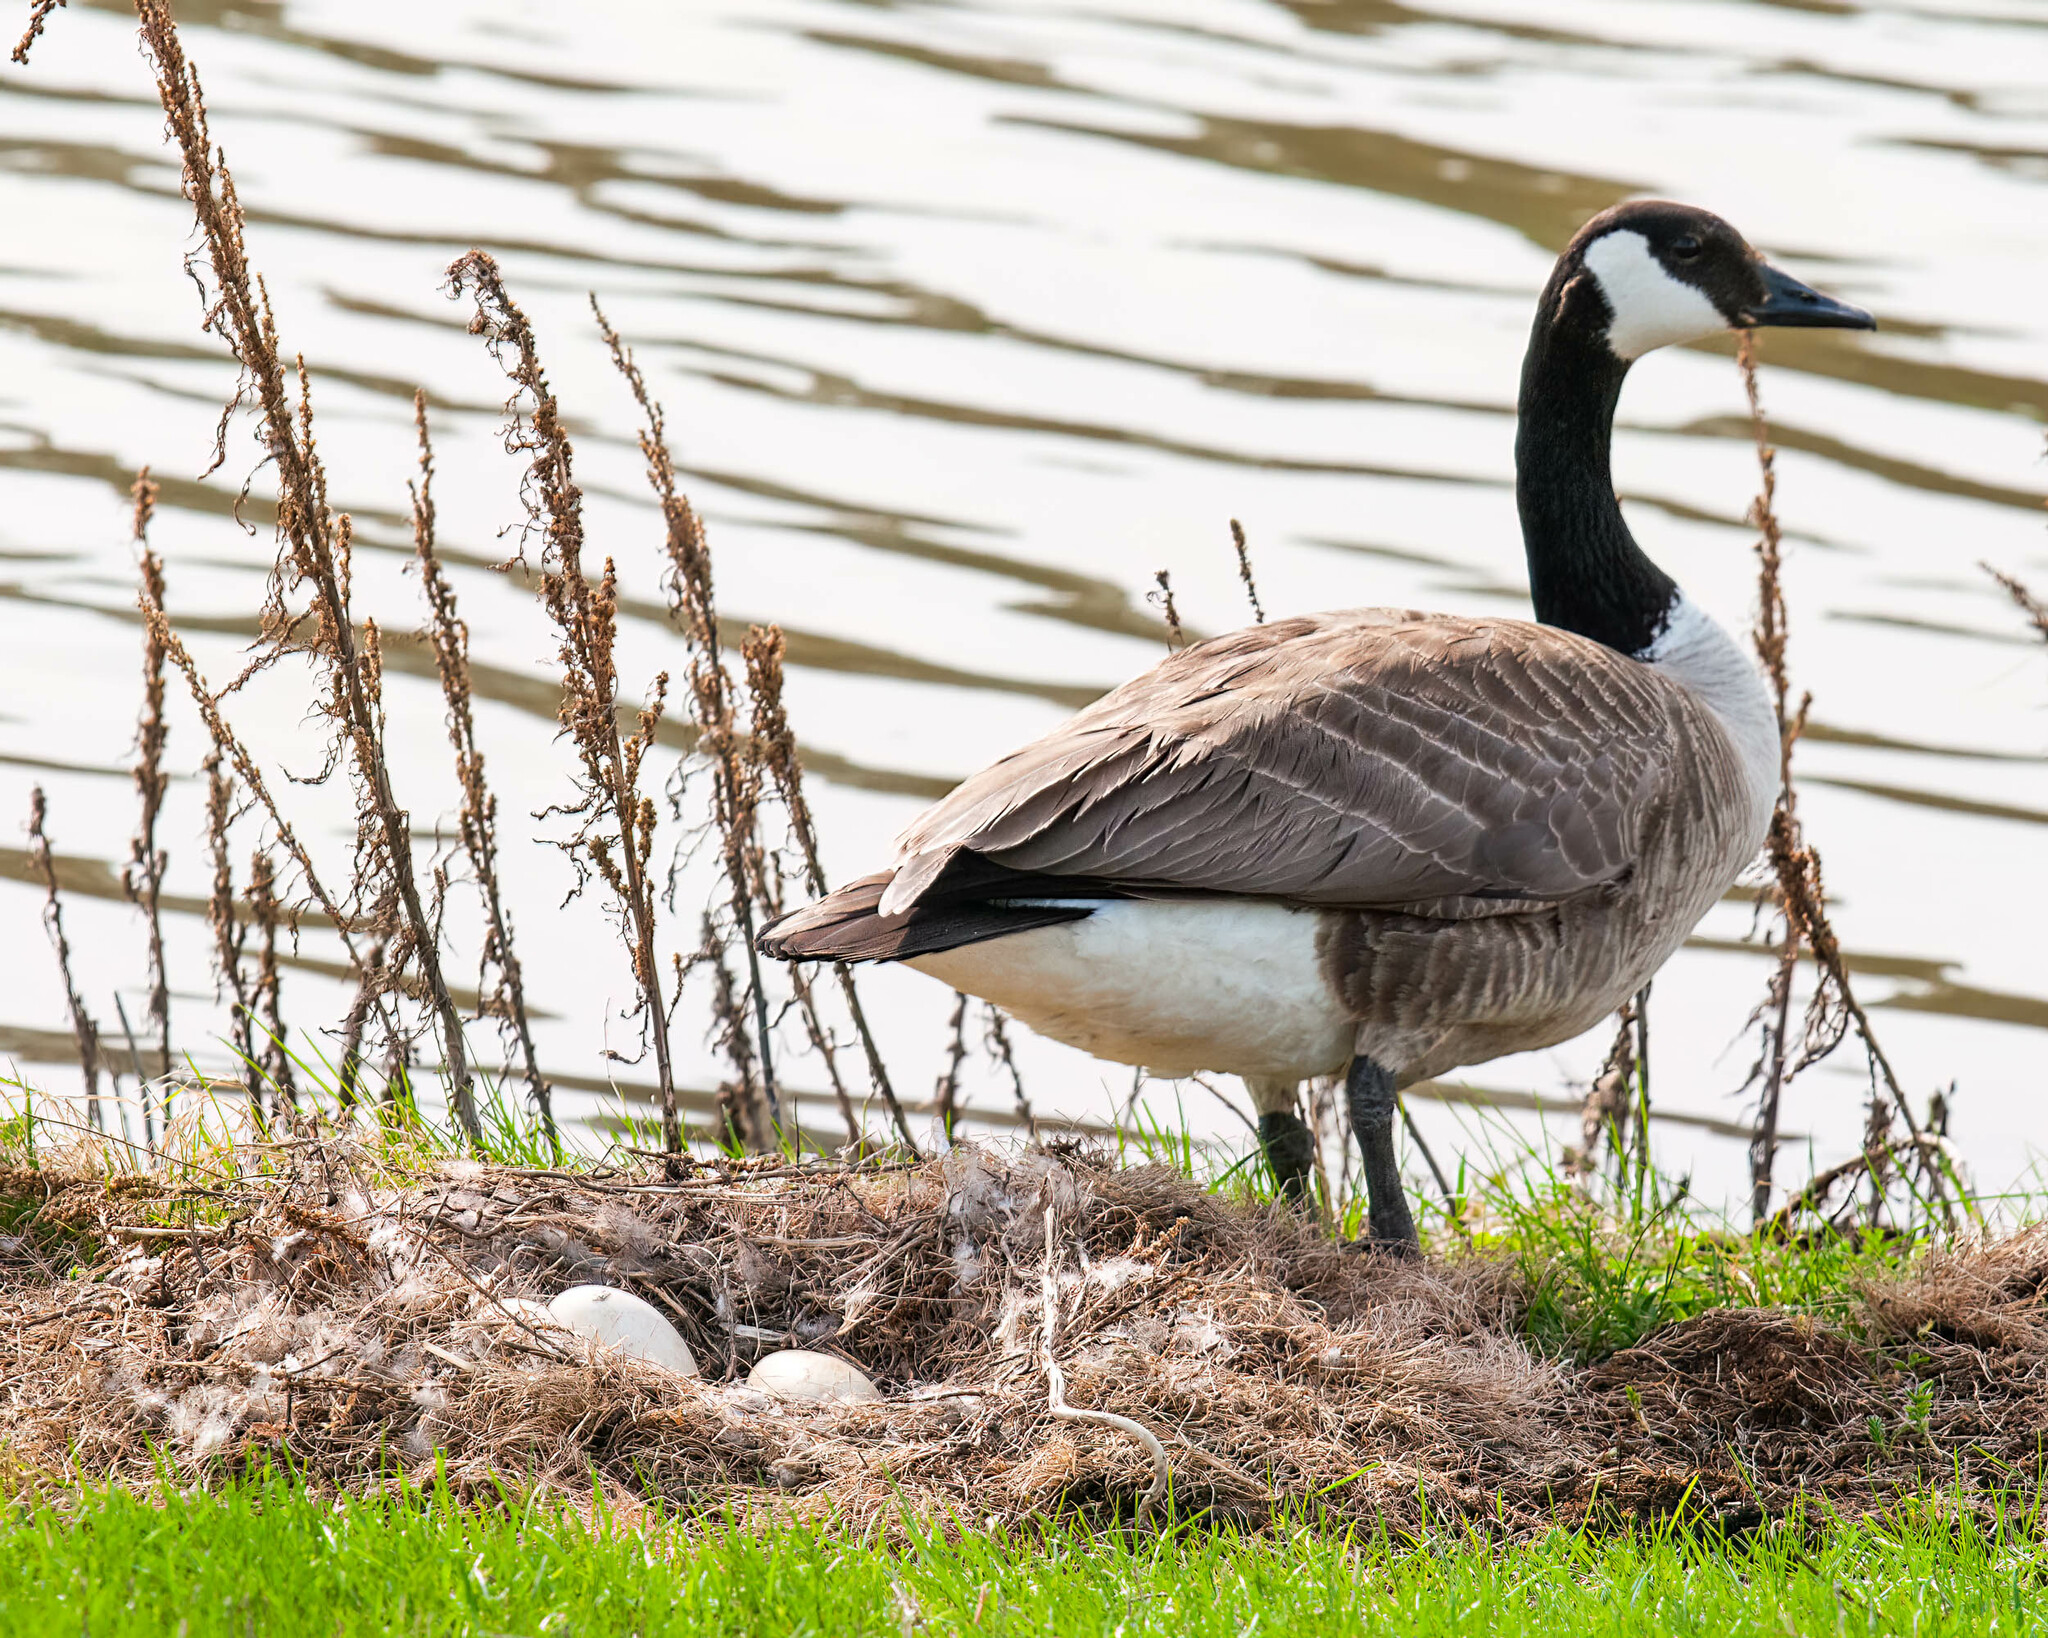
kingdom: Animalia
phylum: Chordata
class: Aves
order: Anseriformes
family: Anatidae
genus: Branta
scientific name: Branta canadensis
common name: Canada goose
